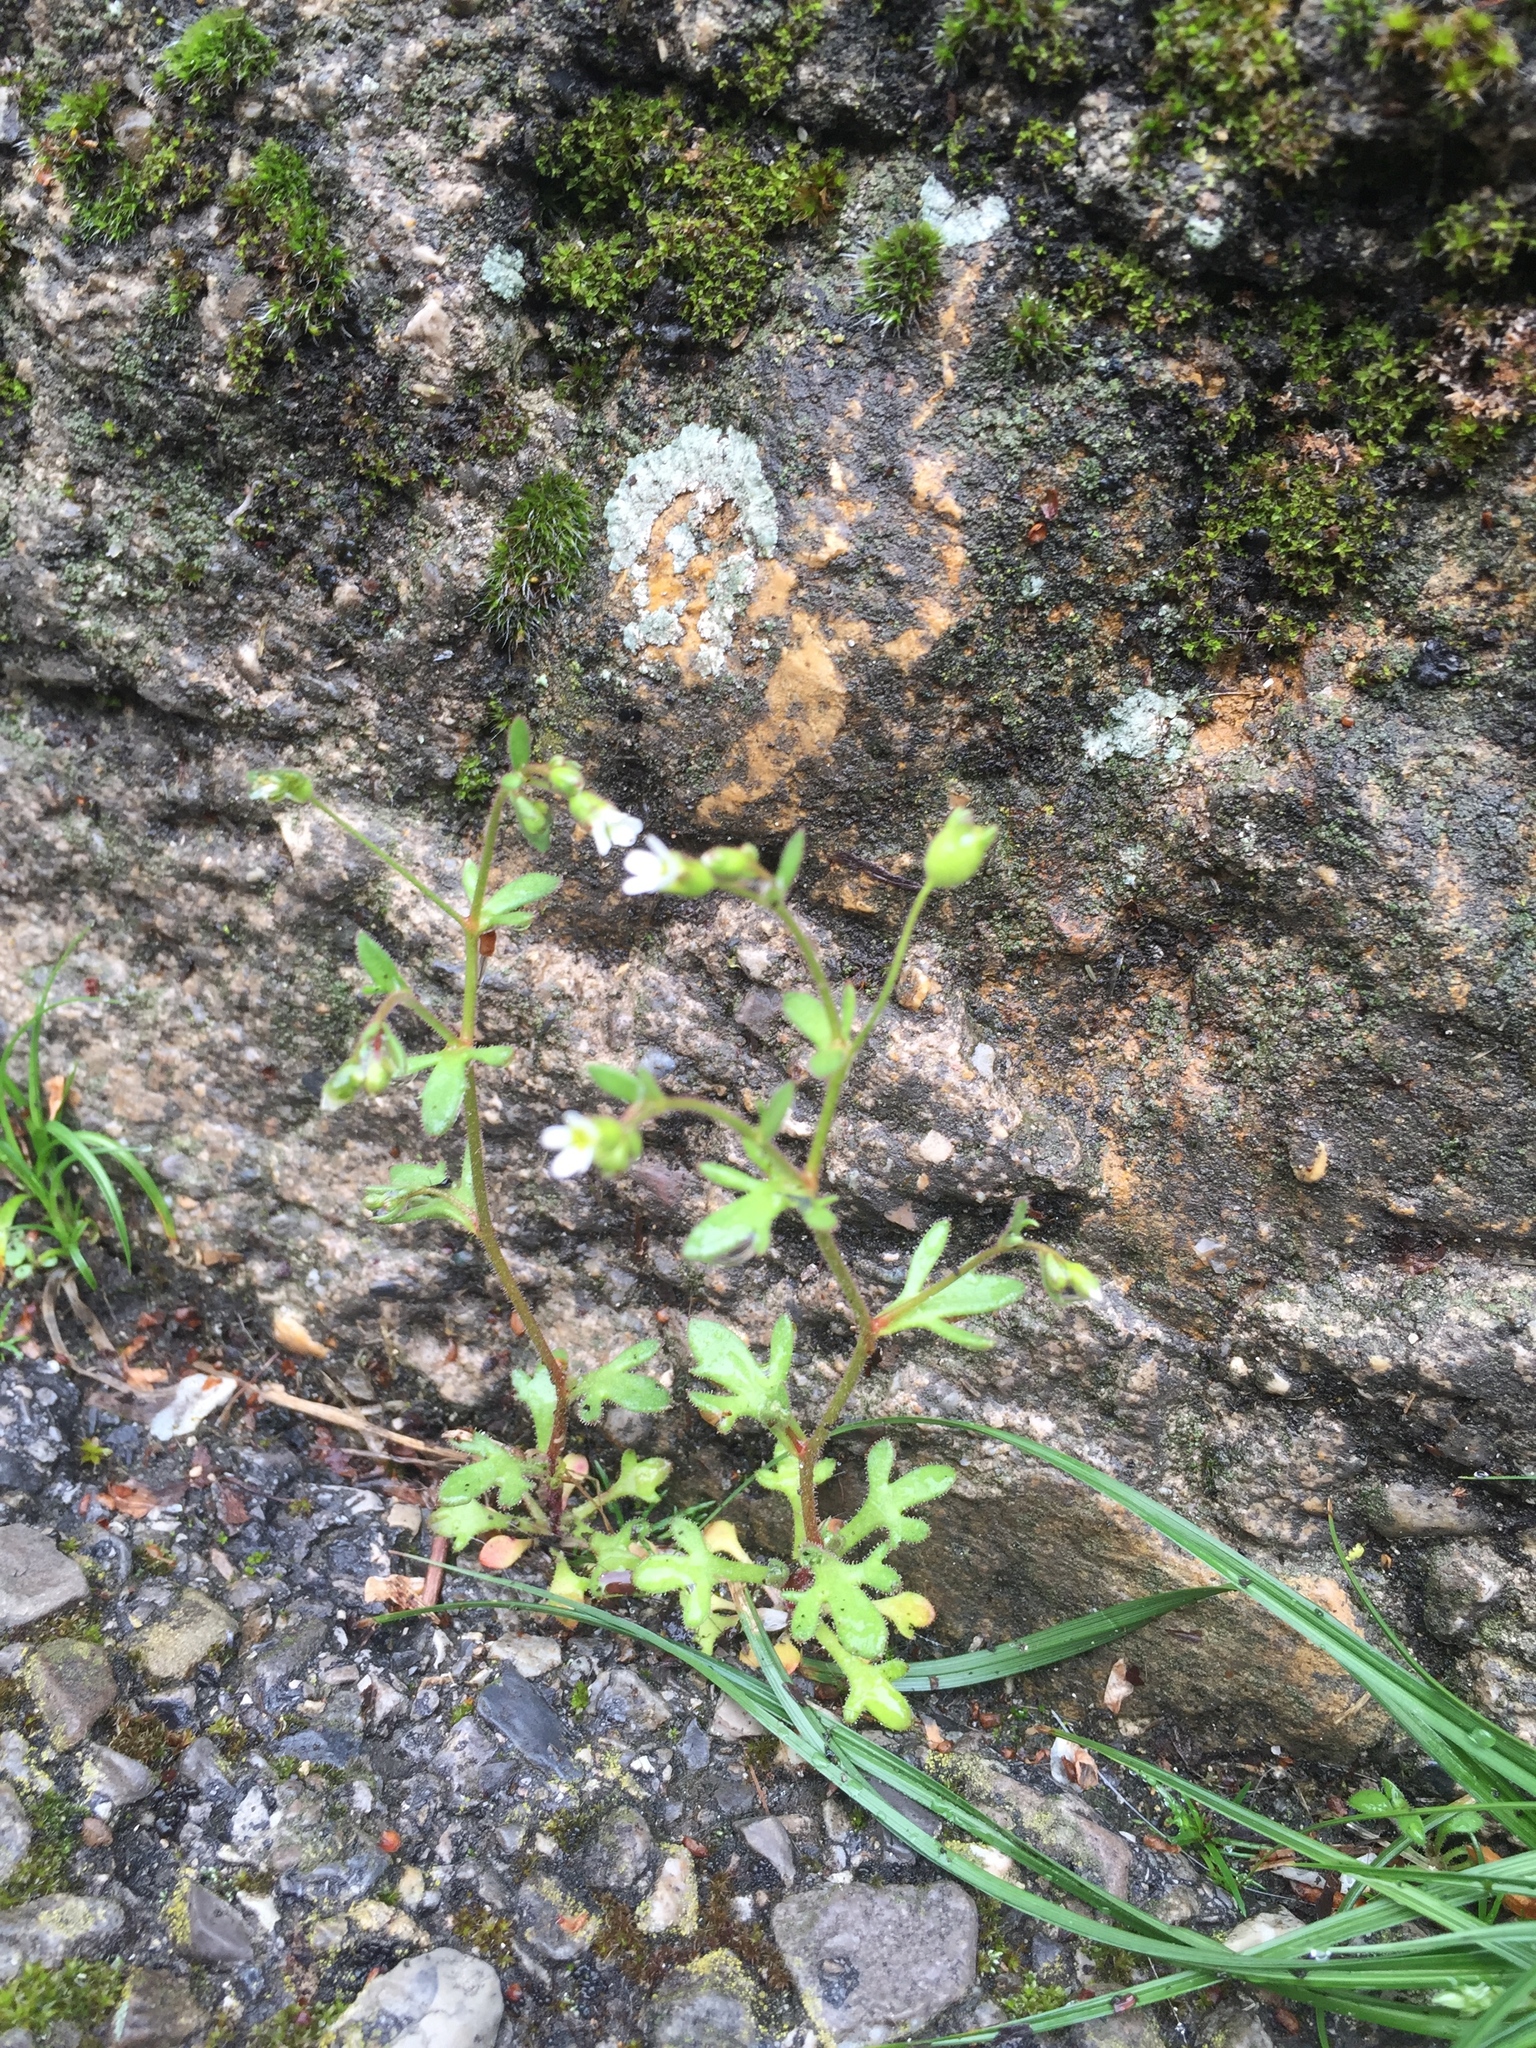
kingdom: Plantae
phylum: Tracheophyta
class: Magnoliopsida
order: Saxifragales
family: Saxifragaceae
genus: Saxifraga
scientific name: Saxifraga tridactylites
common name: Rue-leaved saxifrage
